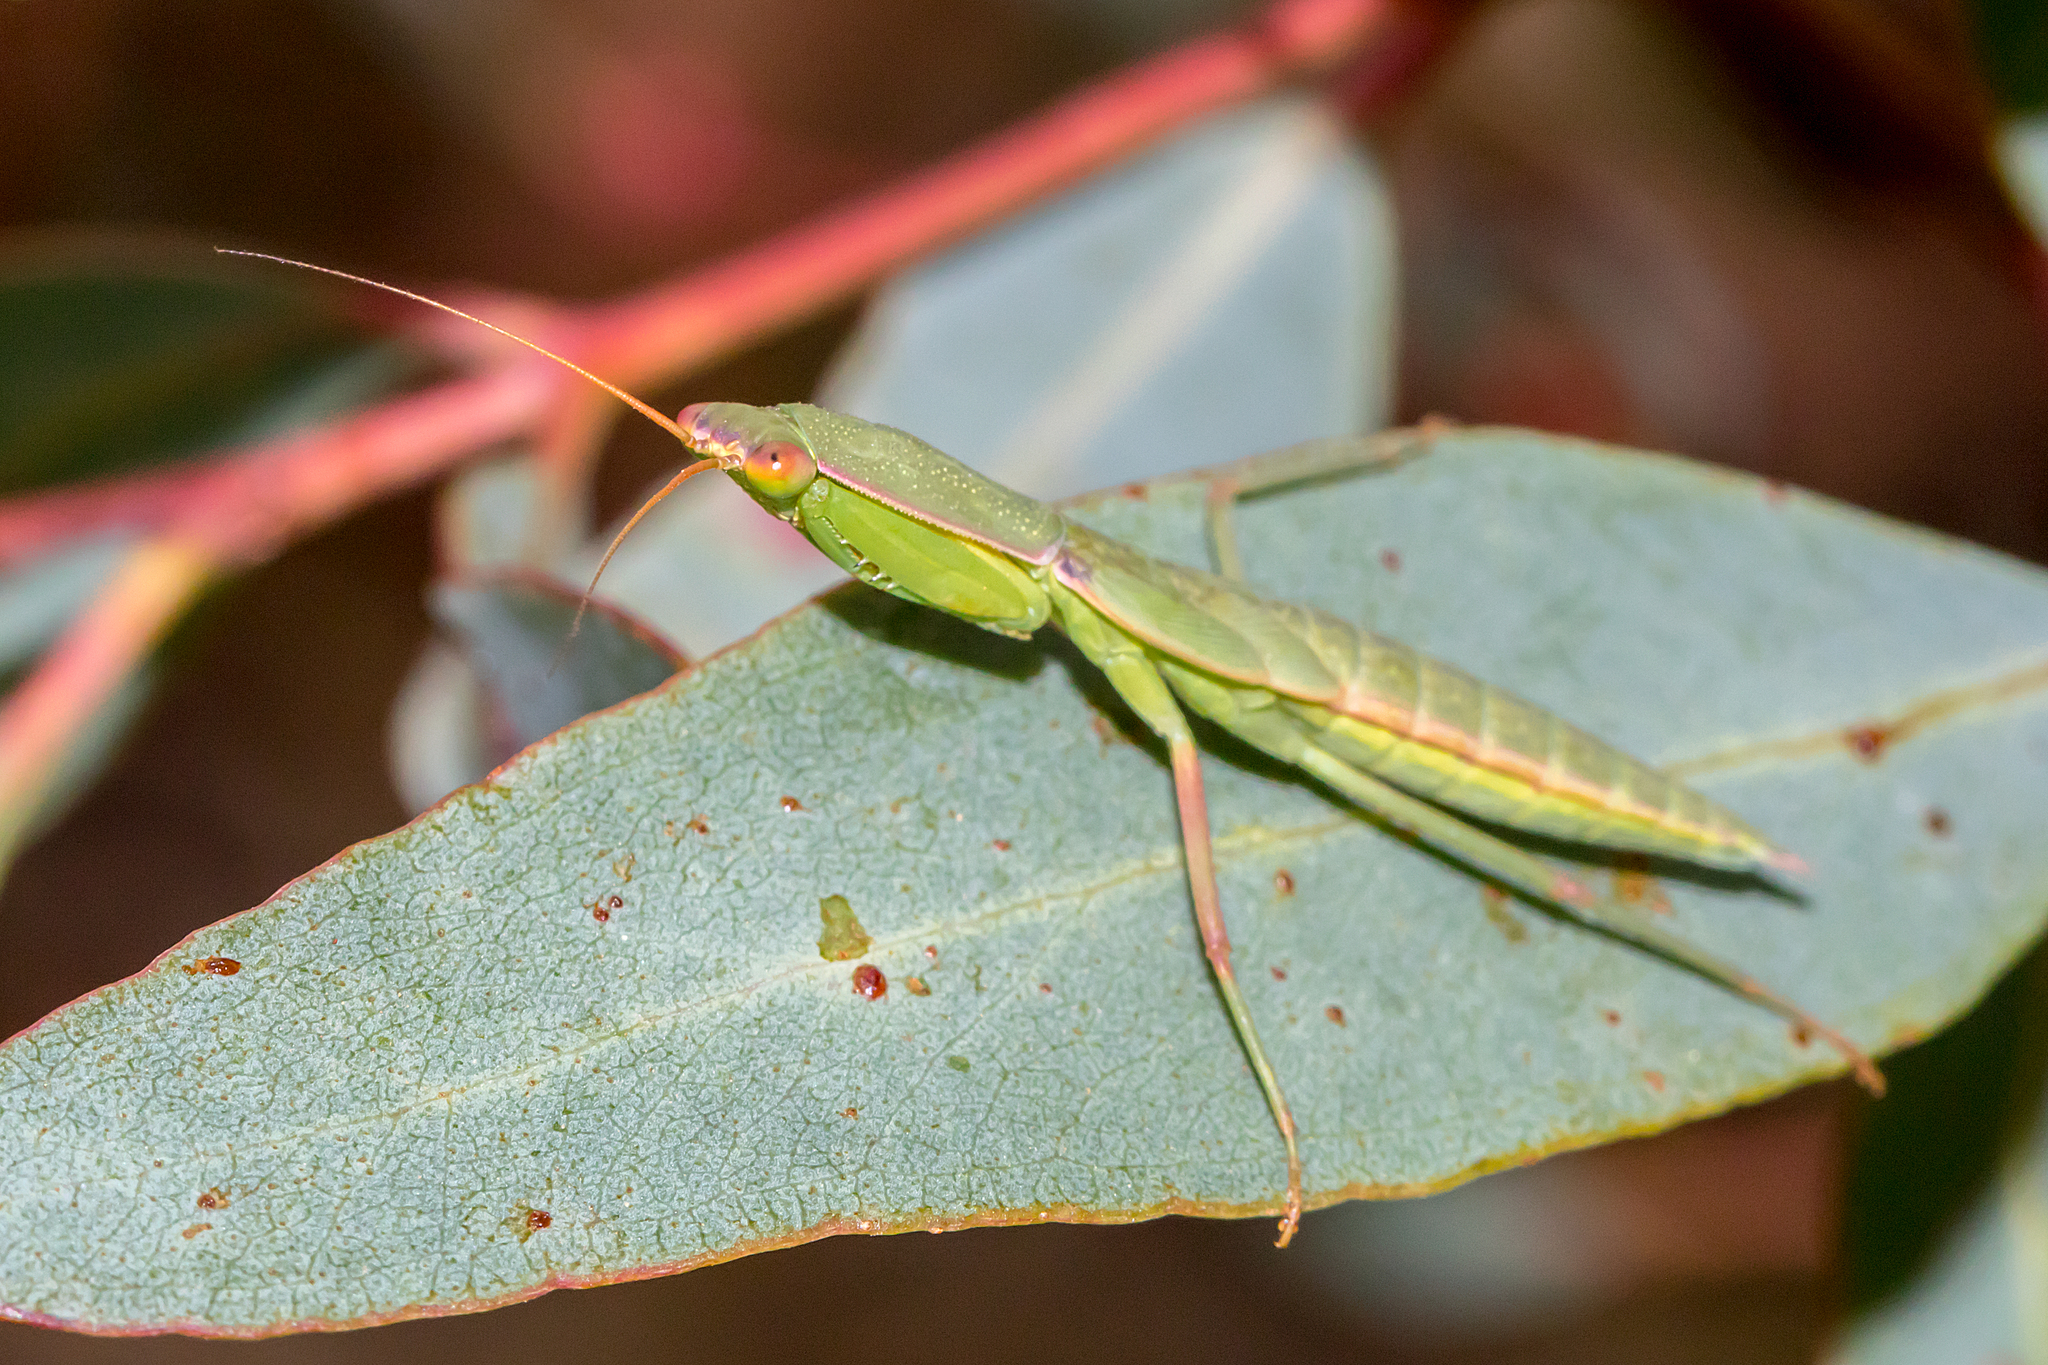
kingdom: Animalia
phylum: Arthropoda
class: Insecta
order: Mantodea
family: Mantidae
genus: Orthodera
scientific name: Orthodera ministralis
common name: Mantis
